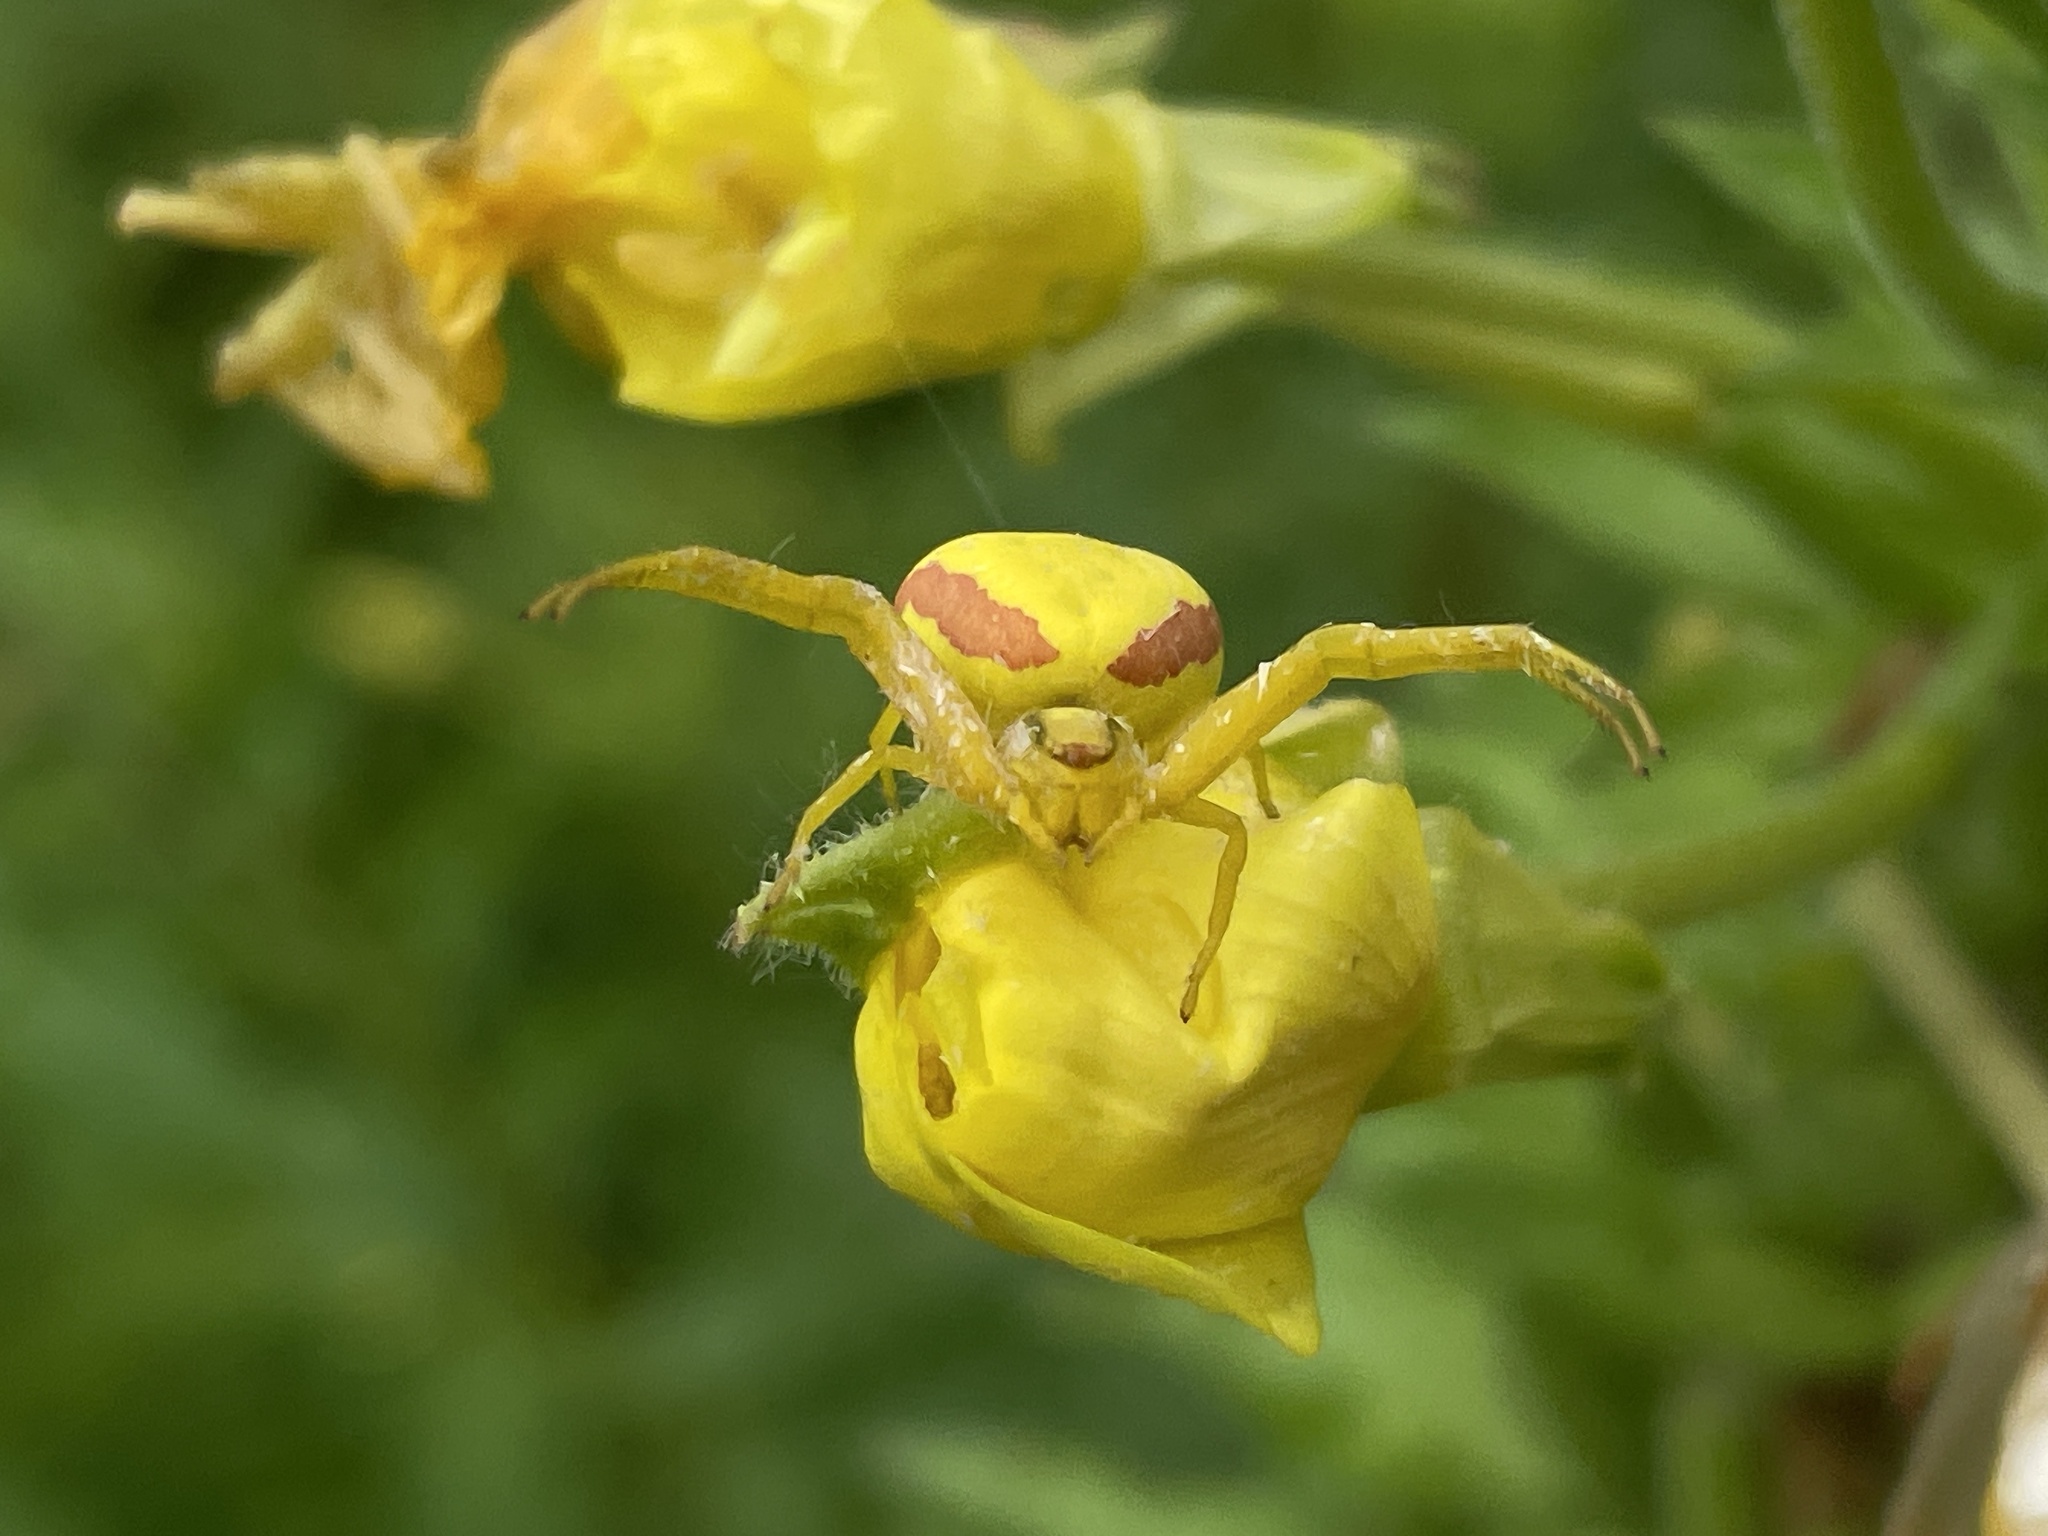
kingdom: Animalia
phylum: Arthropoda
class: Arachnida
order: Araneae
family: Thomisidae
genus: Misumena
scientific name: Misumena vatia
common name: Goldenrod crab spider
